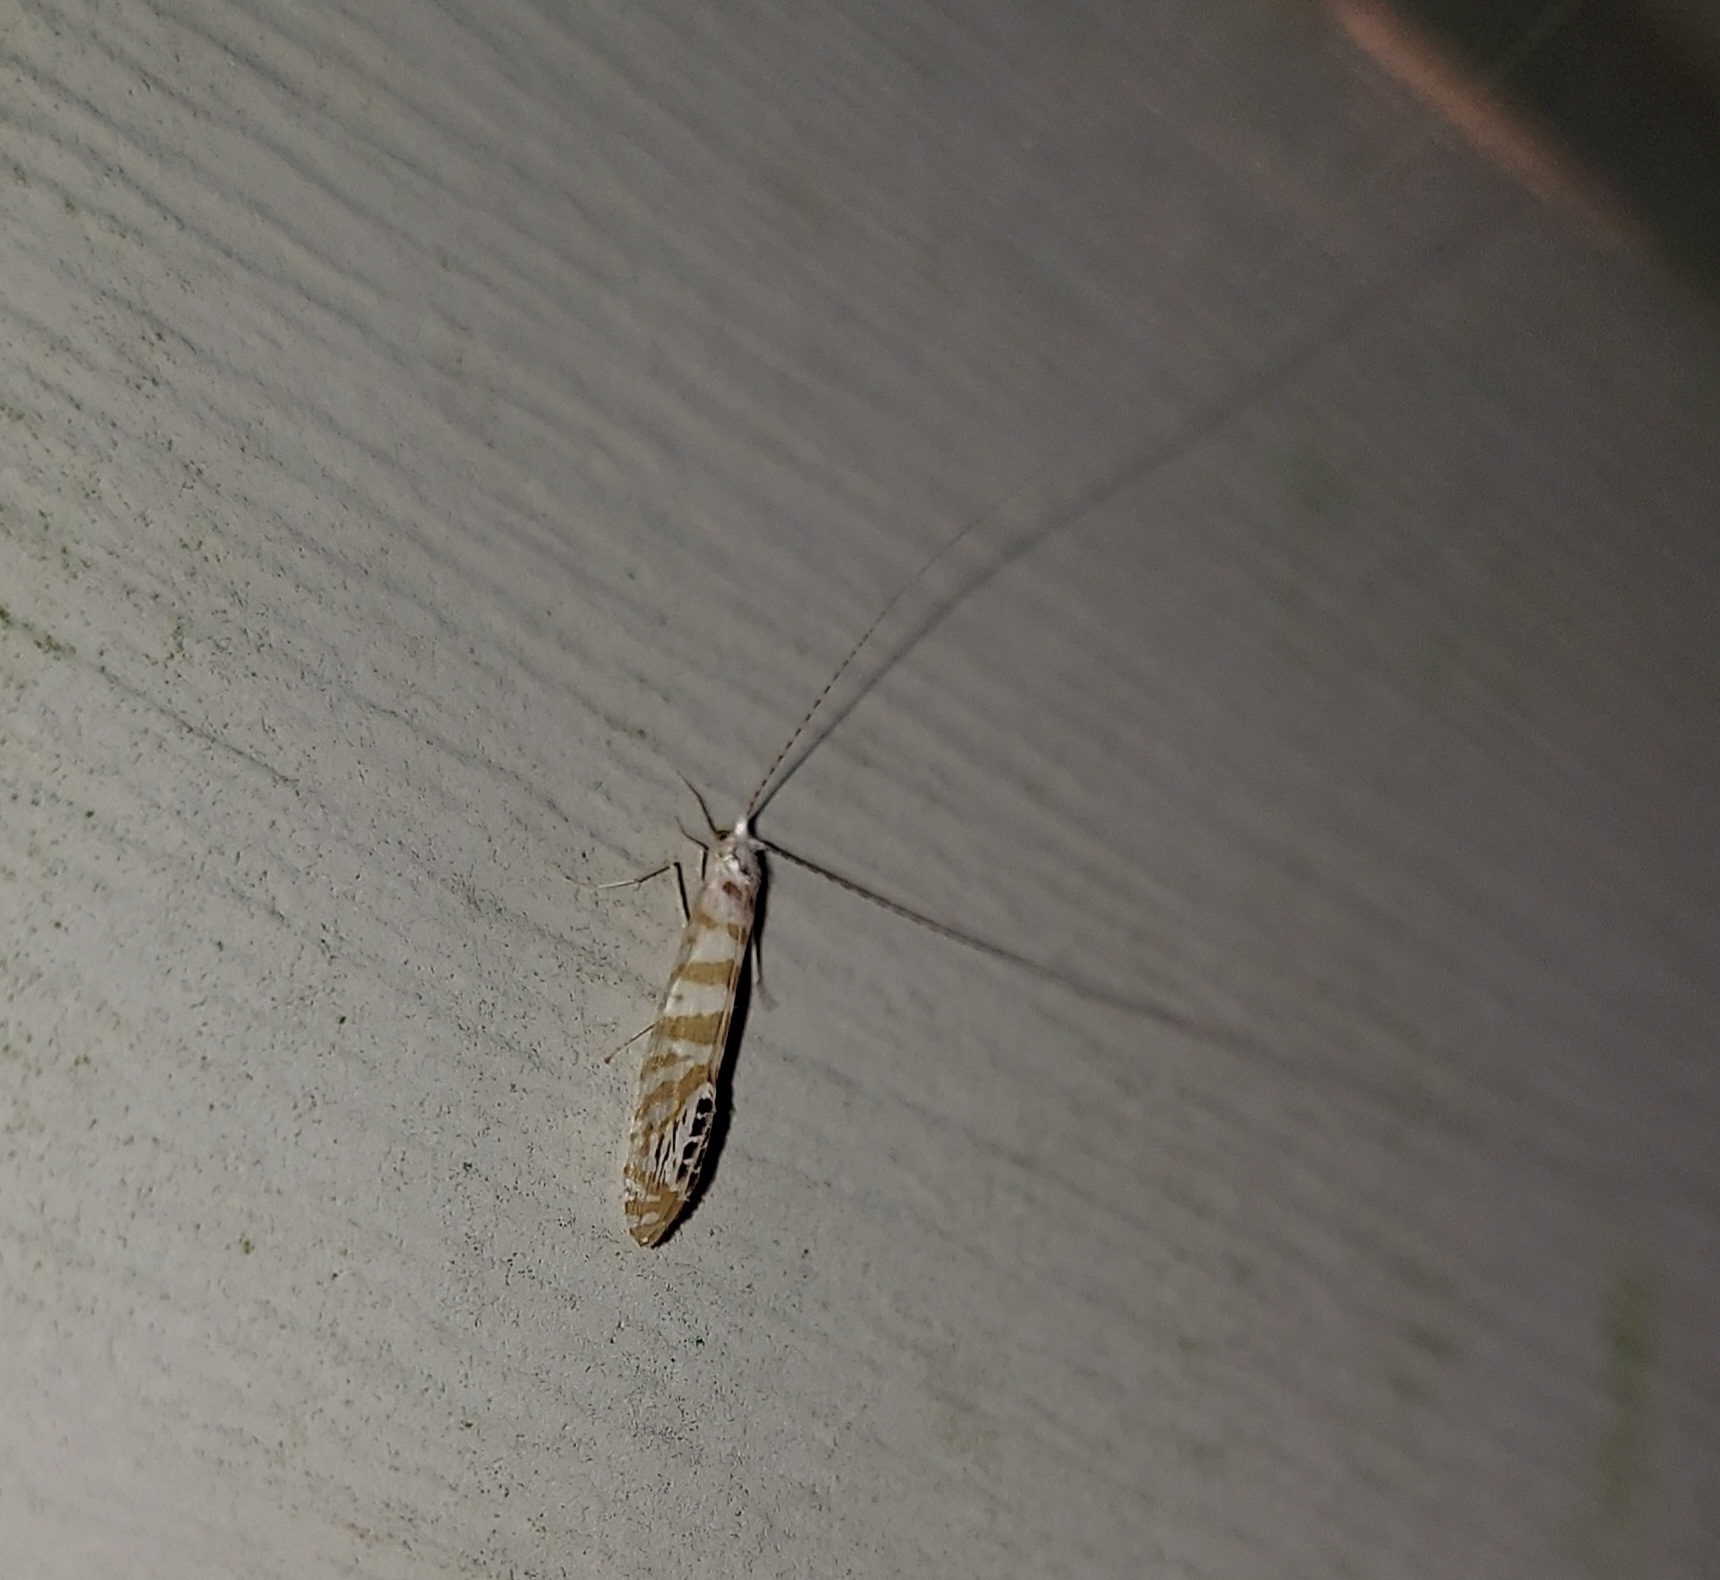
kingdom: Animalia
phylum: Arthropoda
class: Insecta
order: Trichoptera
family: Leptoceridae
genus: Nectopsyche
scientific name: Nectopsyche exquisita
